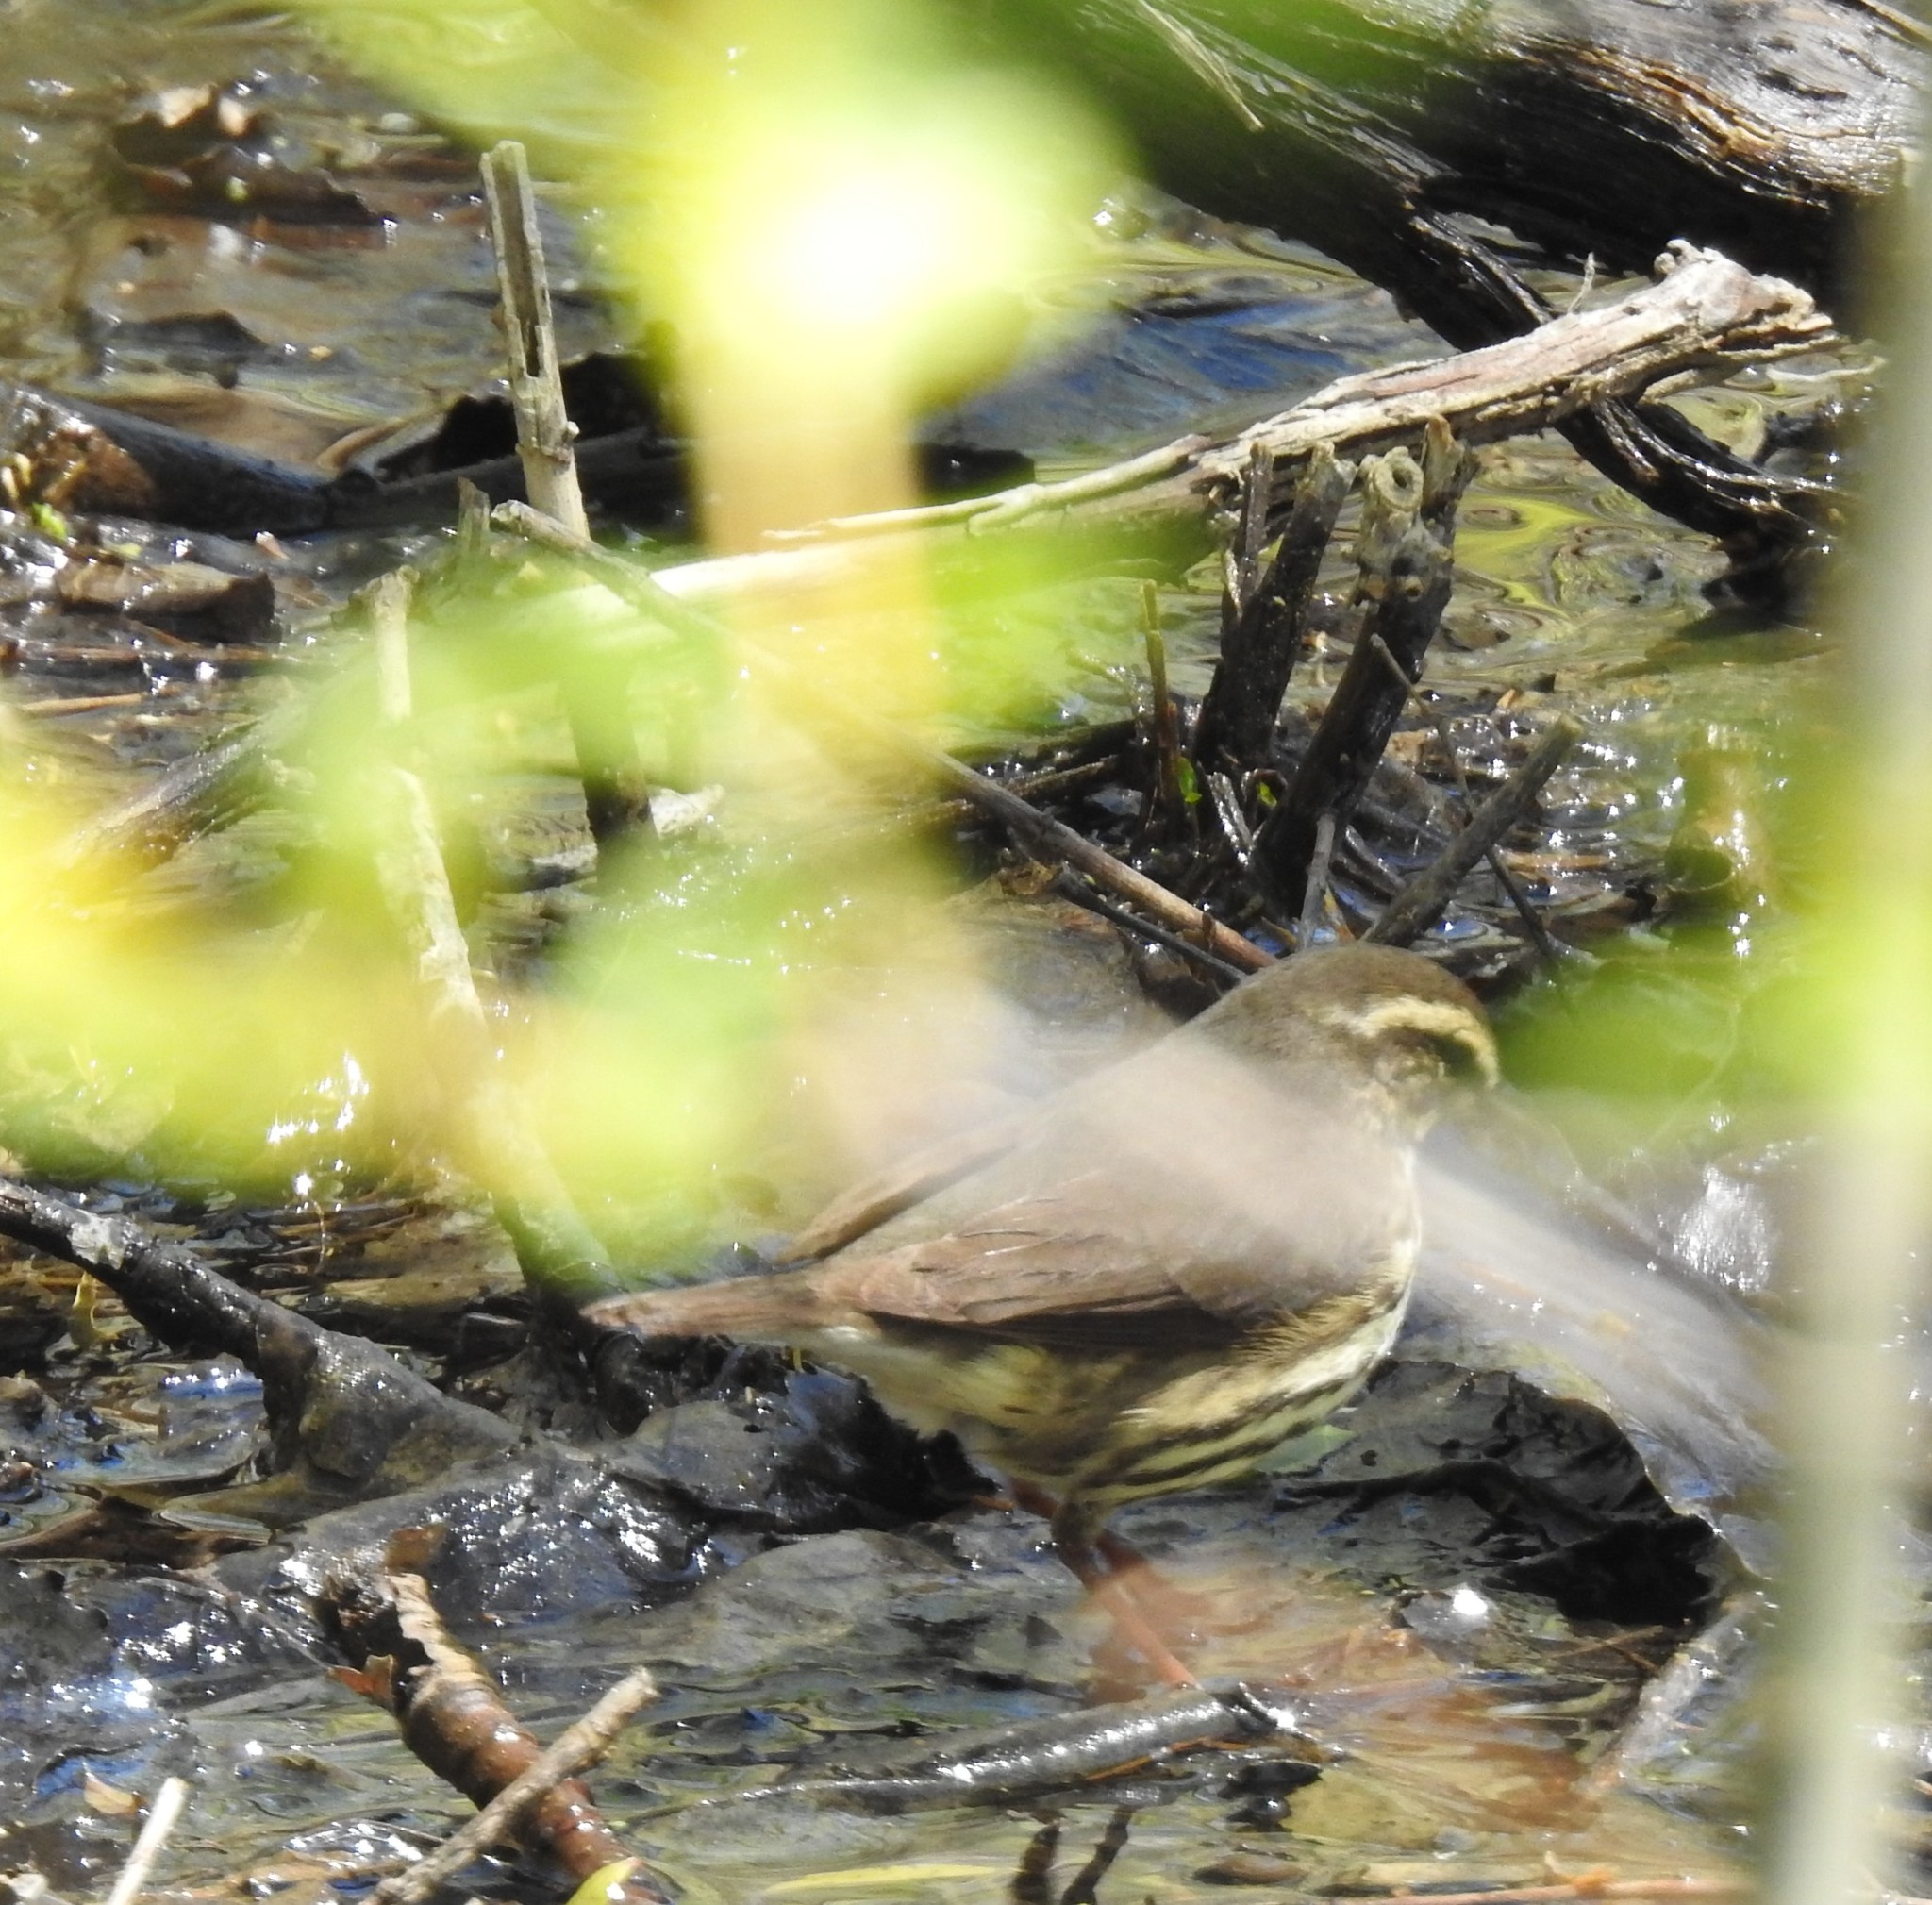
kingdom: Animalia
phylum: Chordata
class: Aves
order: Passeriformes
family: Parulidae
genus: Parkesia
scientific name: Parkesia noveboracensis
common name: Northern waterthrush
